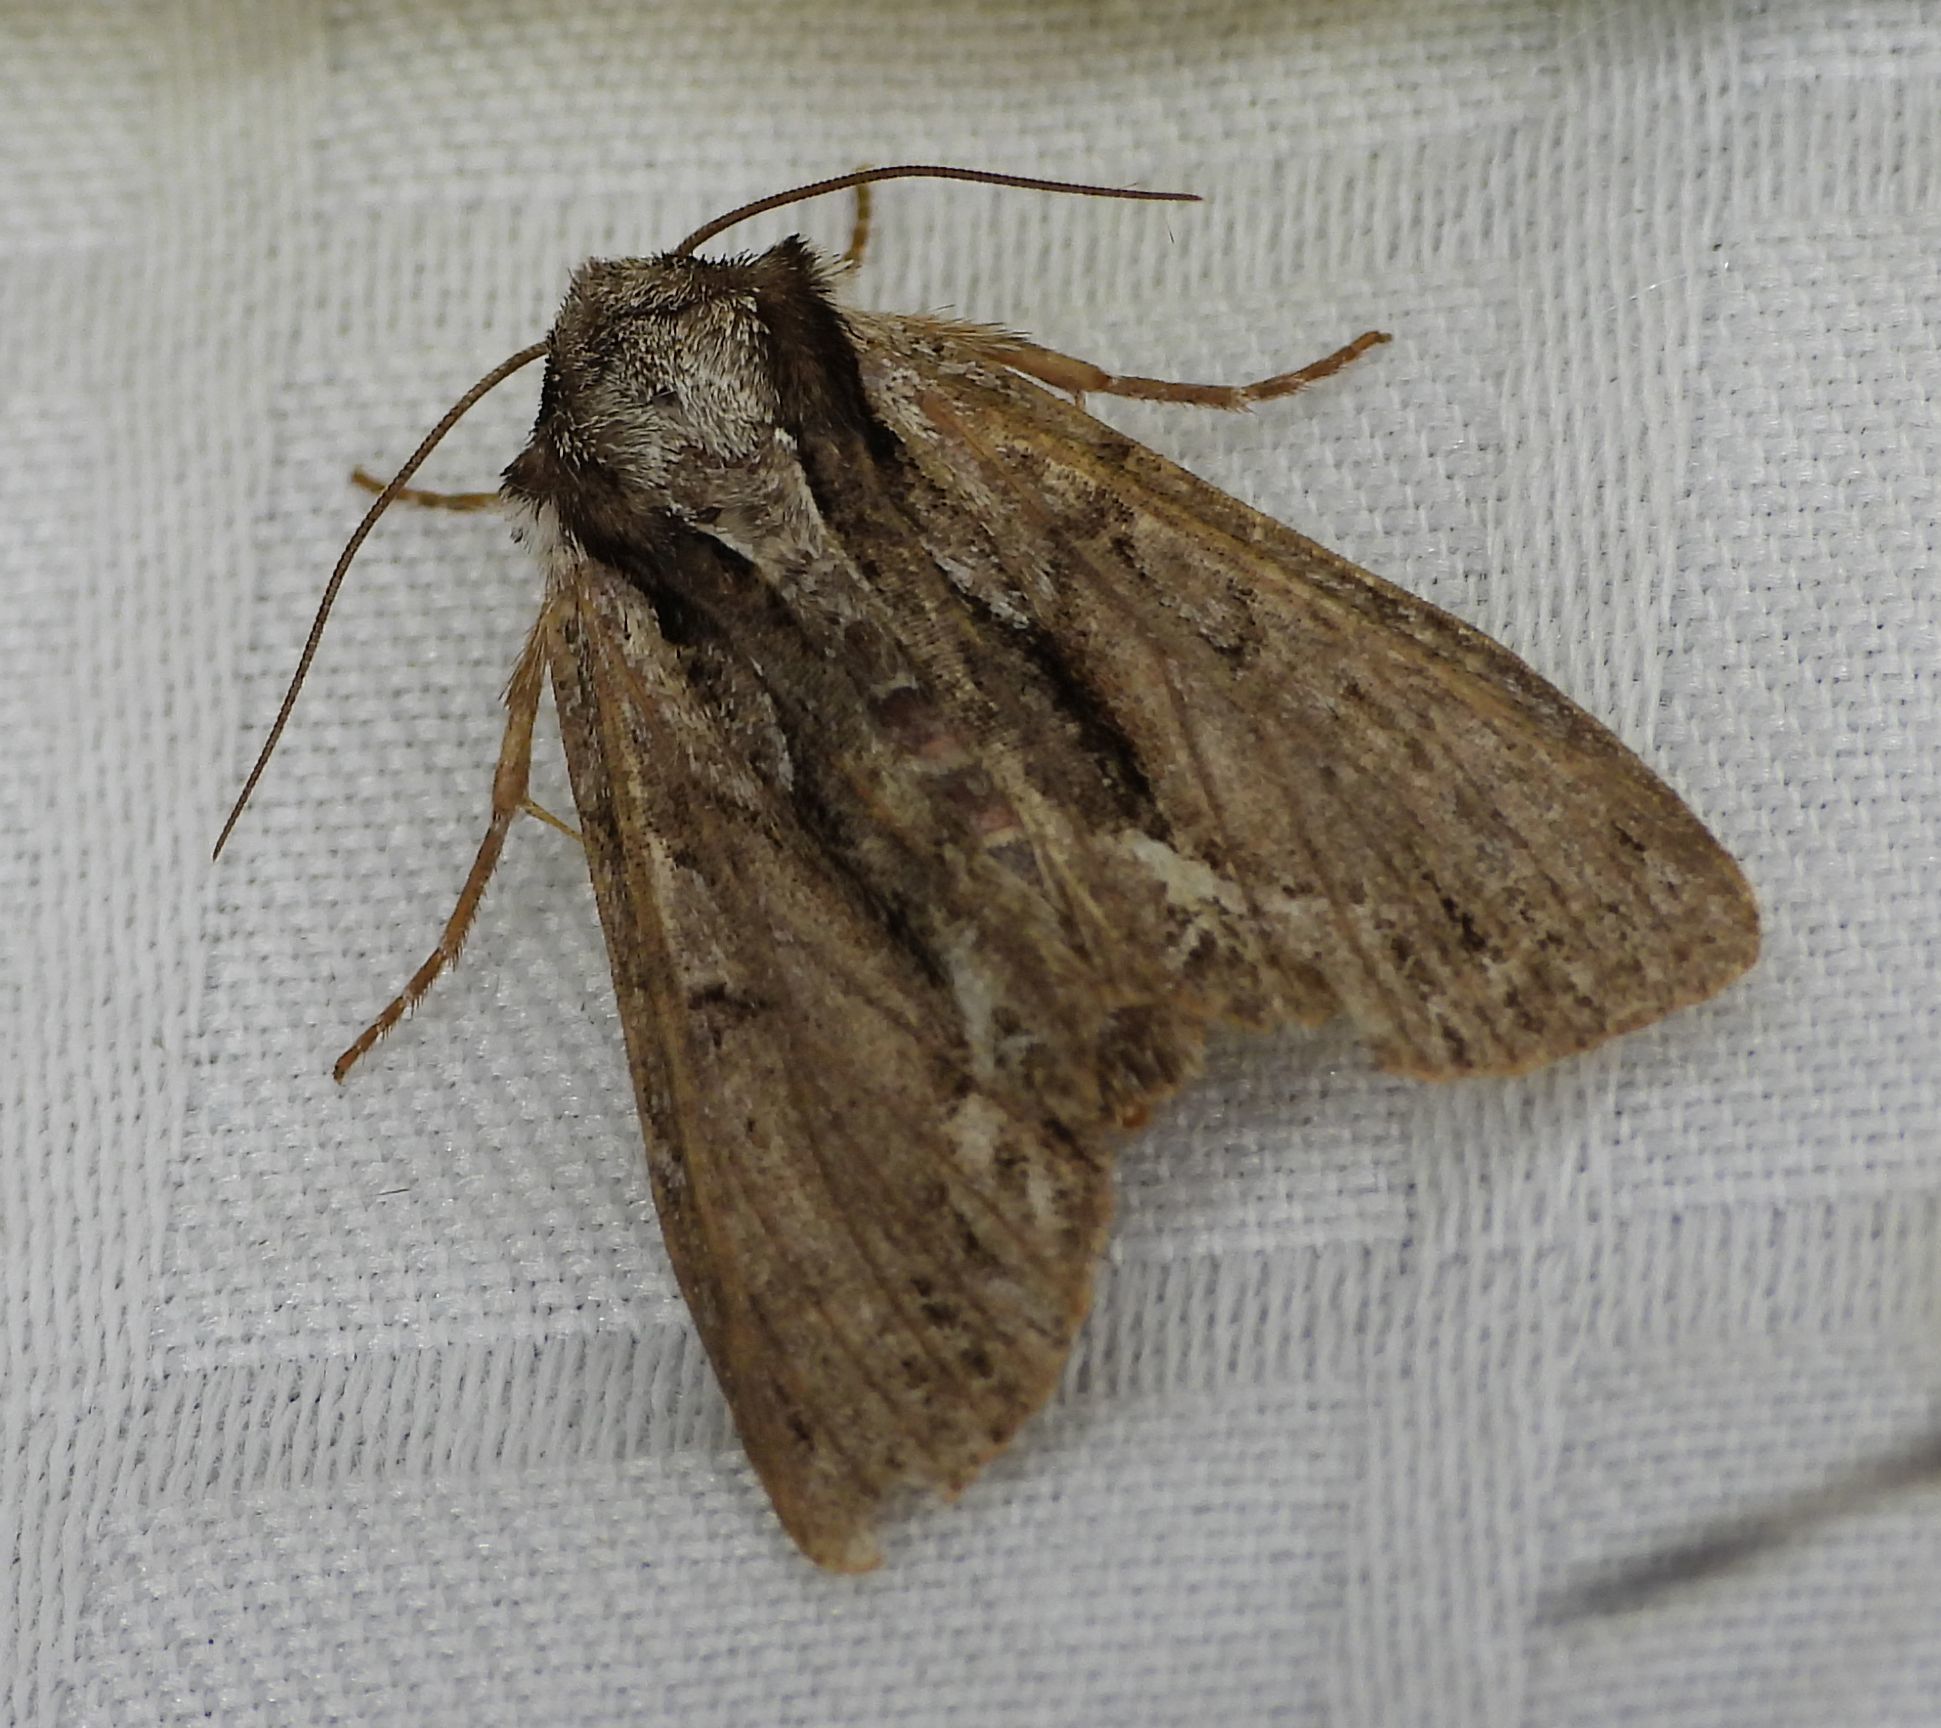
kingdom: Animalia
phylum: Arthropoda
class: Insecta
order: Lepidoptera
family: Noctuidae
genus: Hyppa
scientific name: Hyppa xylinoides
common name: Common hyppa moth
